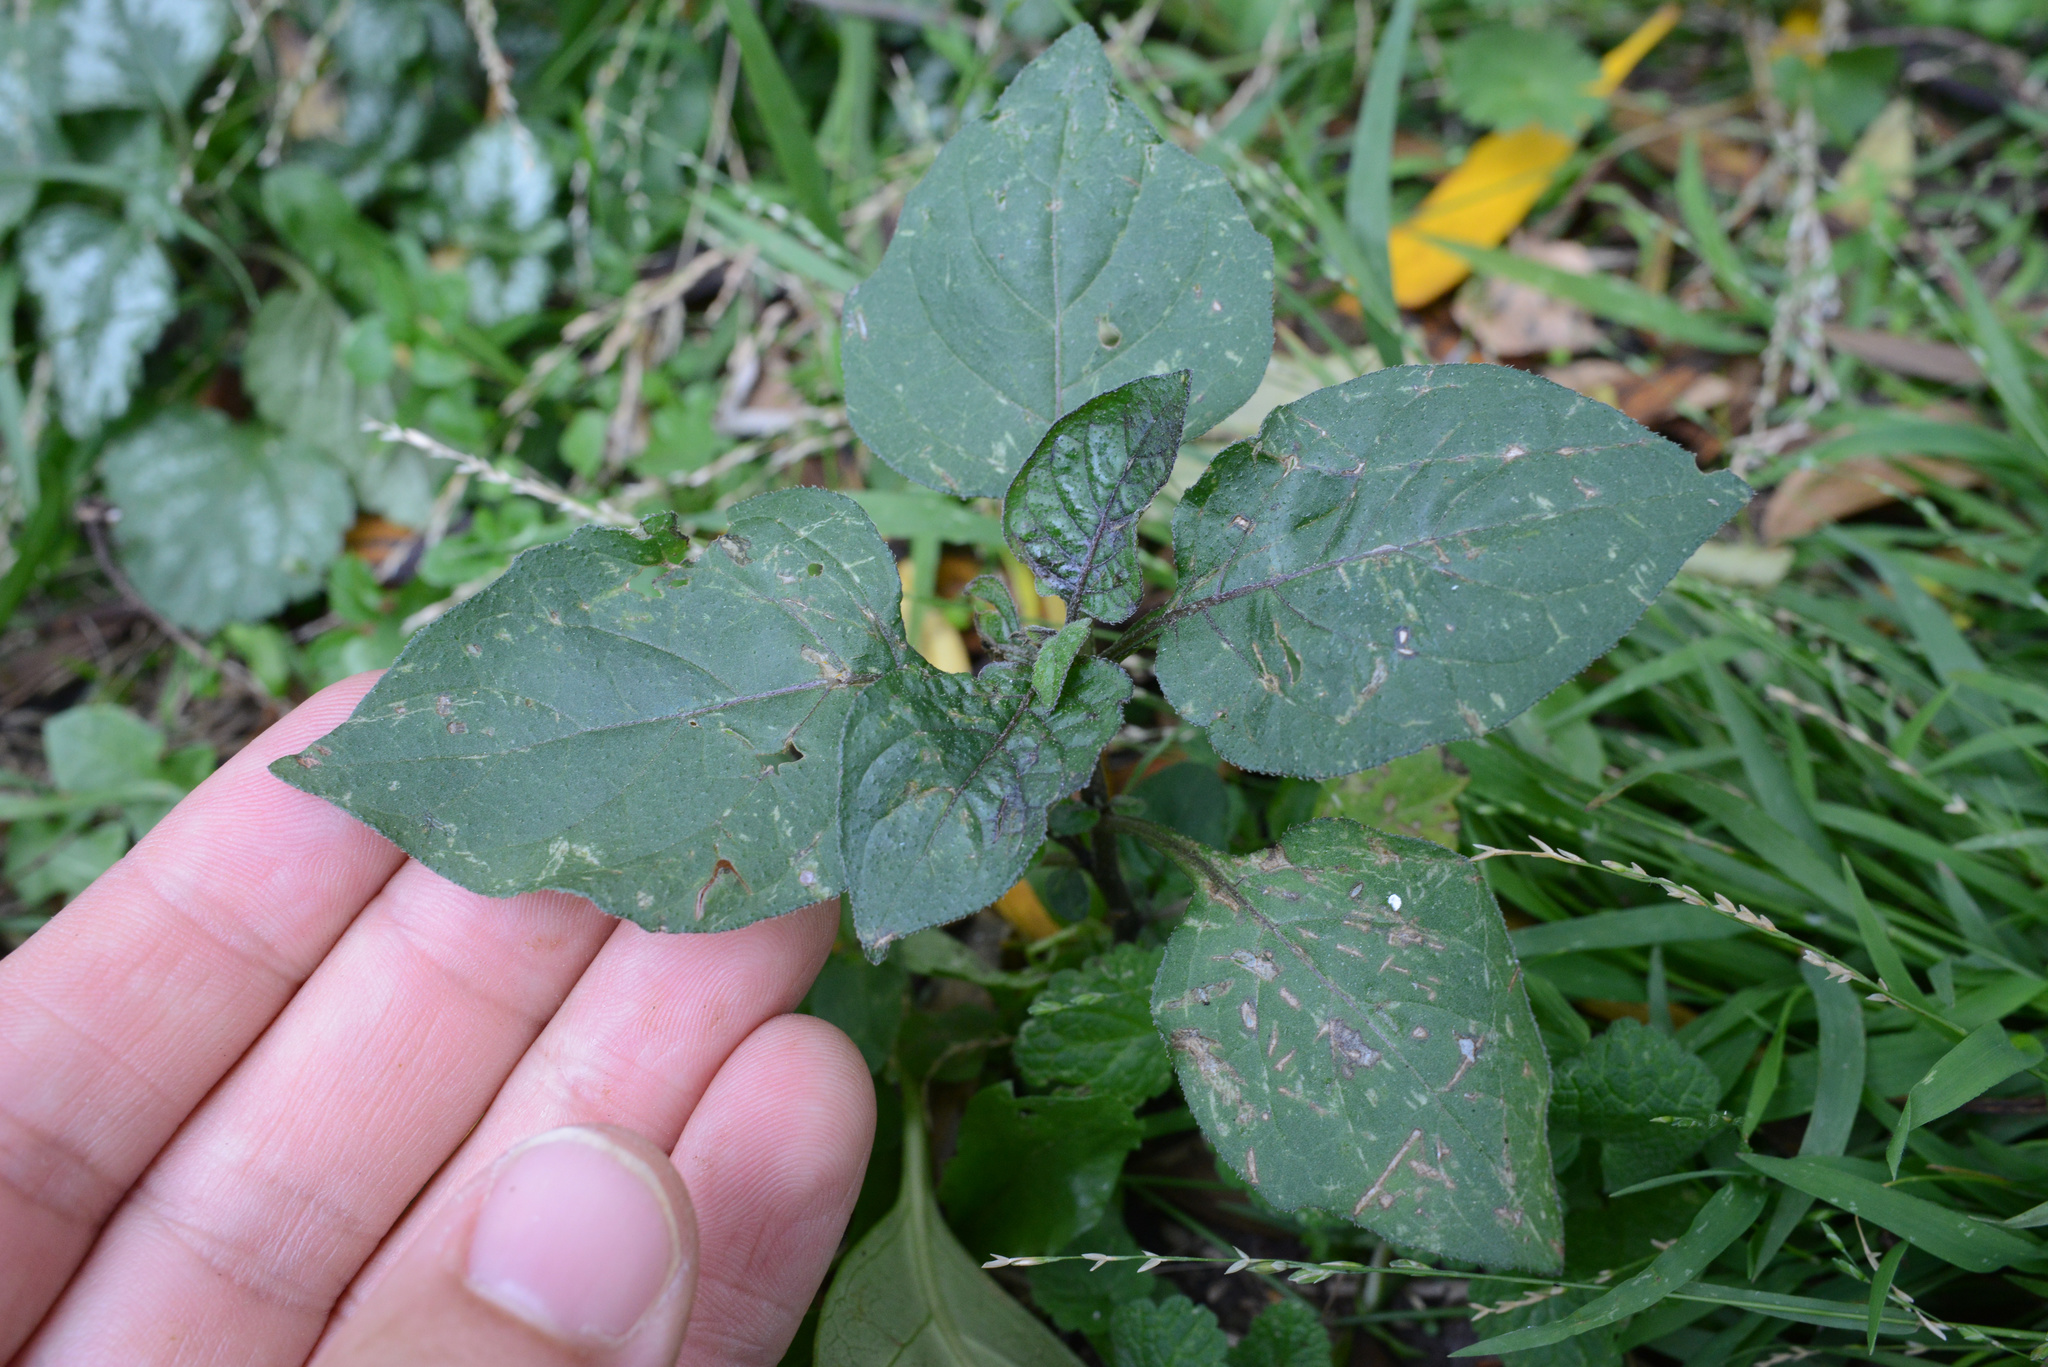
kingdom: Plantae
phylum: Tracheophyta
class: Magnoliopsida
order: Solanales
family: Solanaceae
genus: Solanum
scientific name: Solanum nigrum
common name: Black nightshade
